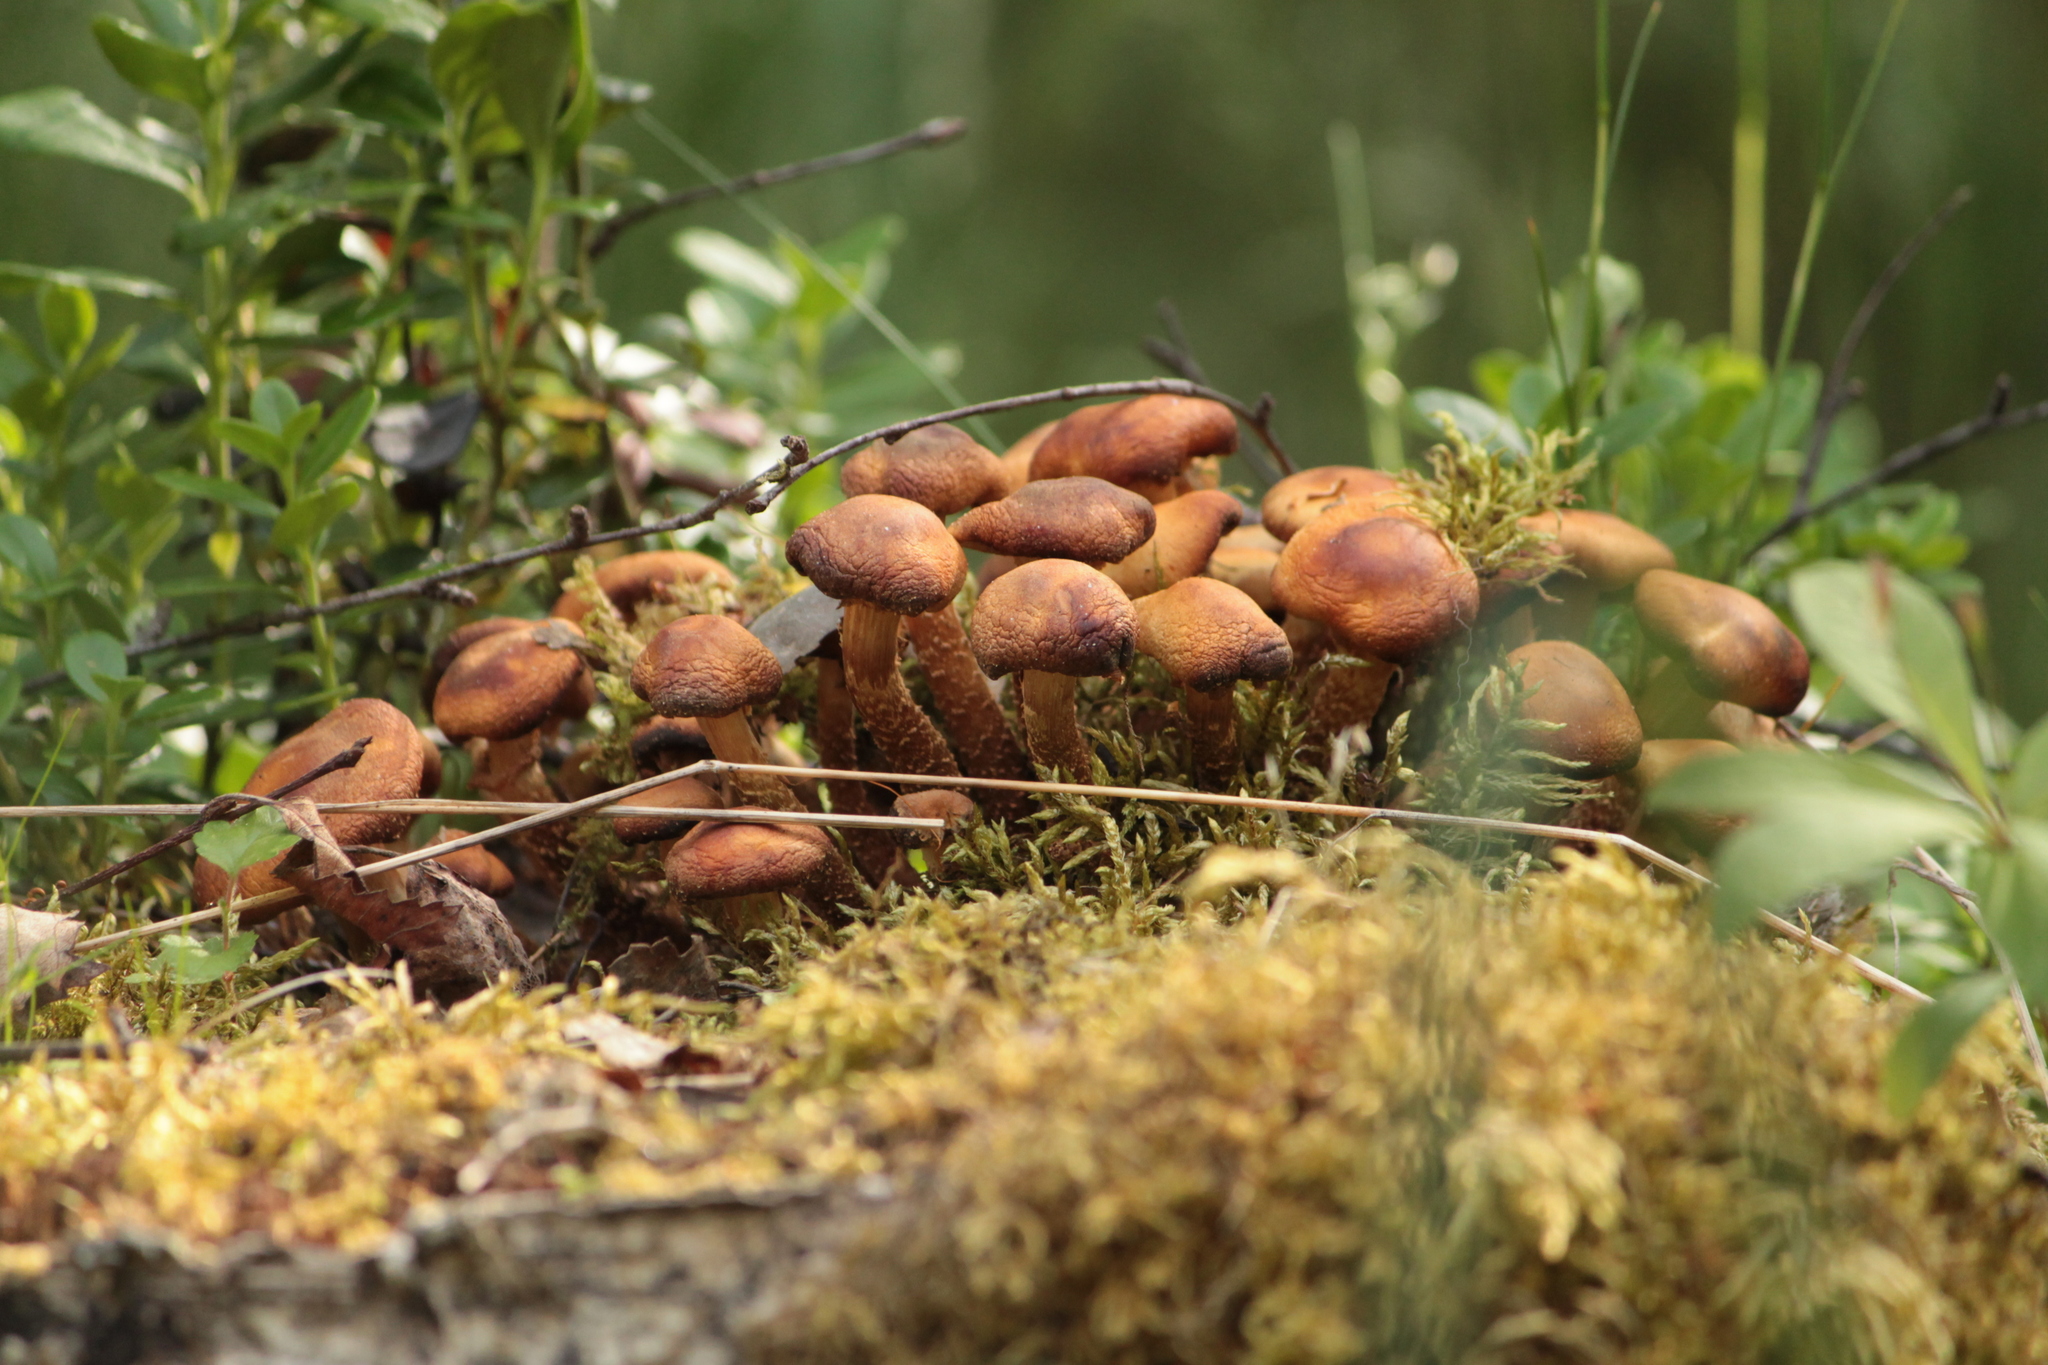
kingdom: Fungi
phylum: Basidiomycota
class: Agaricomycetes
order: Agaricales
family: Strophariaceae
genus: Kuehneromyces
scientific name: Kuehneromyces mutabilis
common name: Sheathed woodtuft
